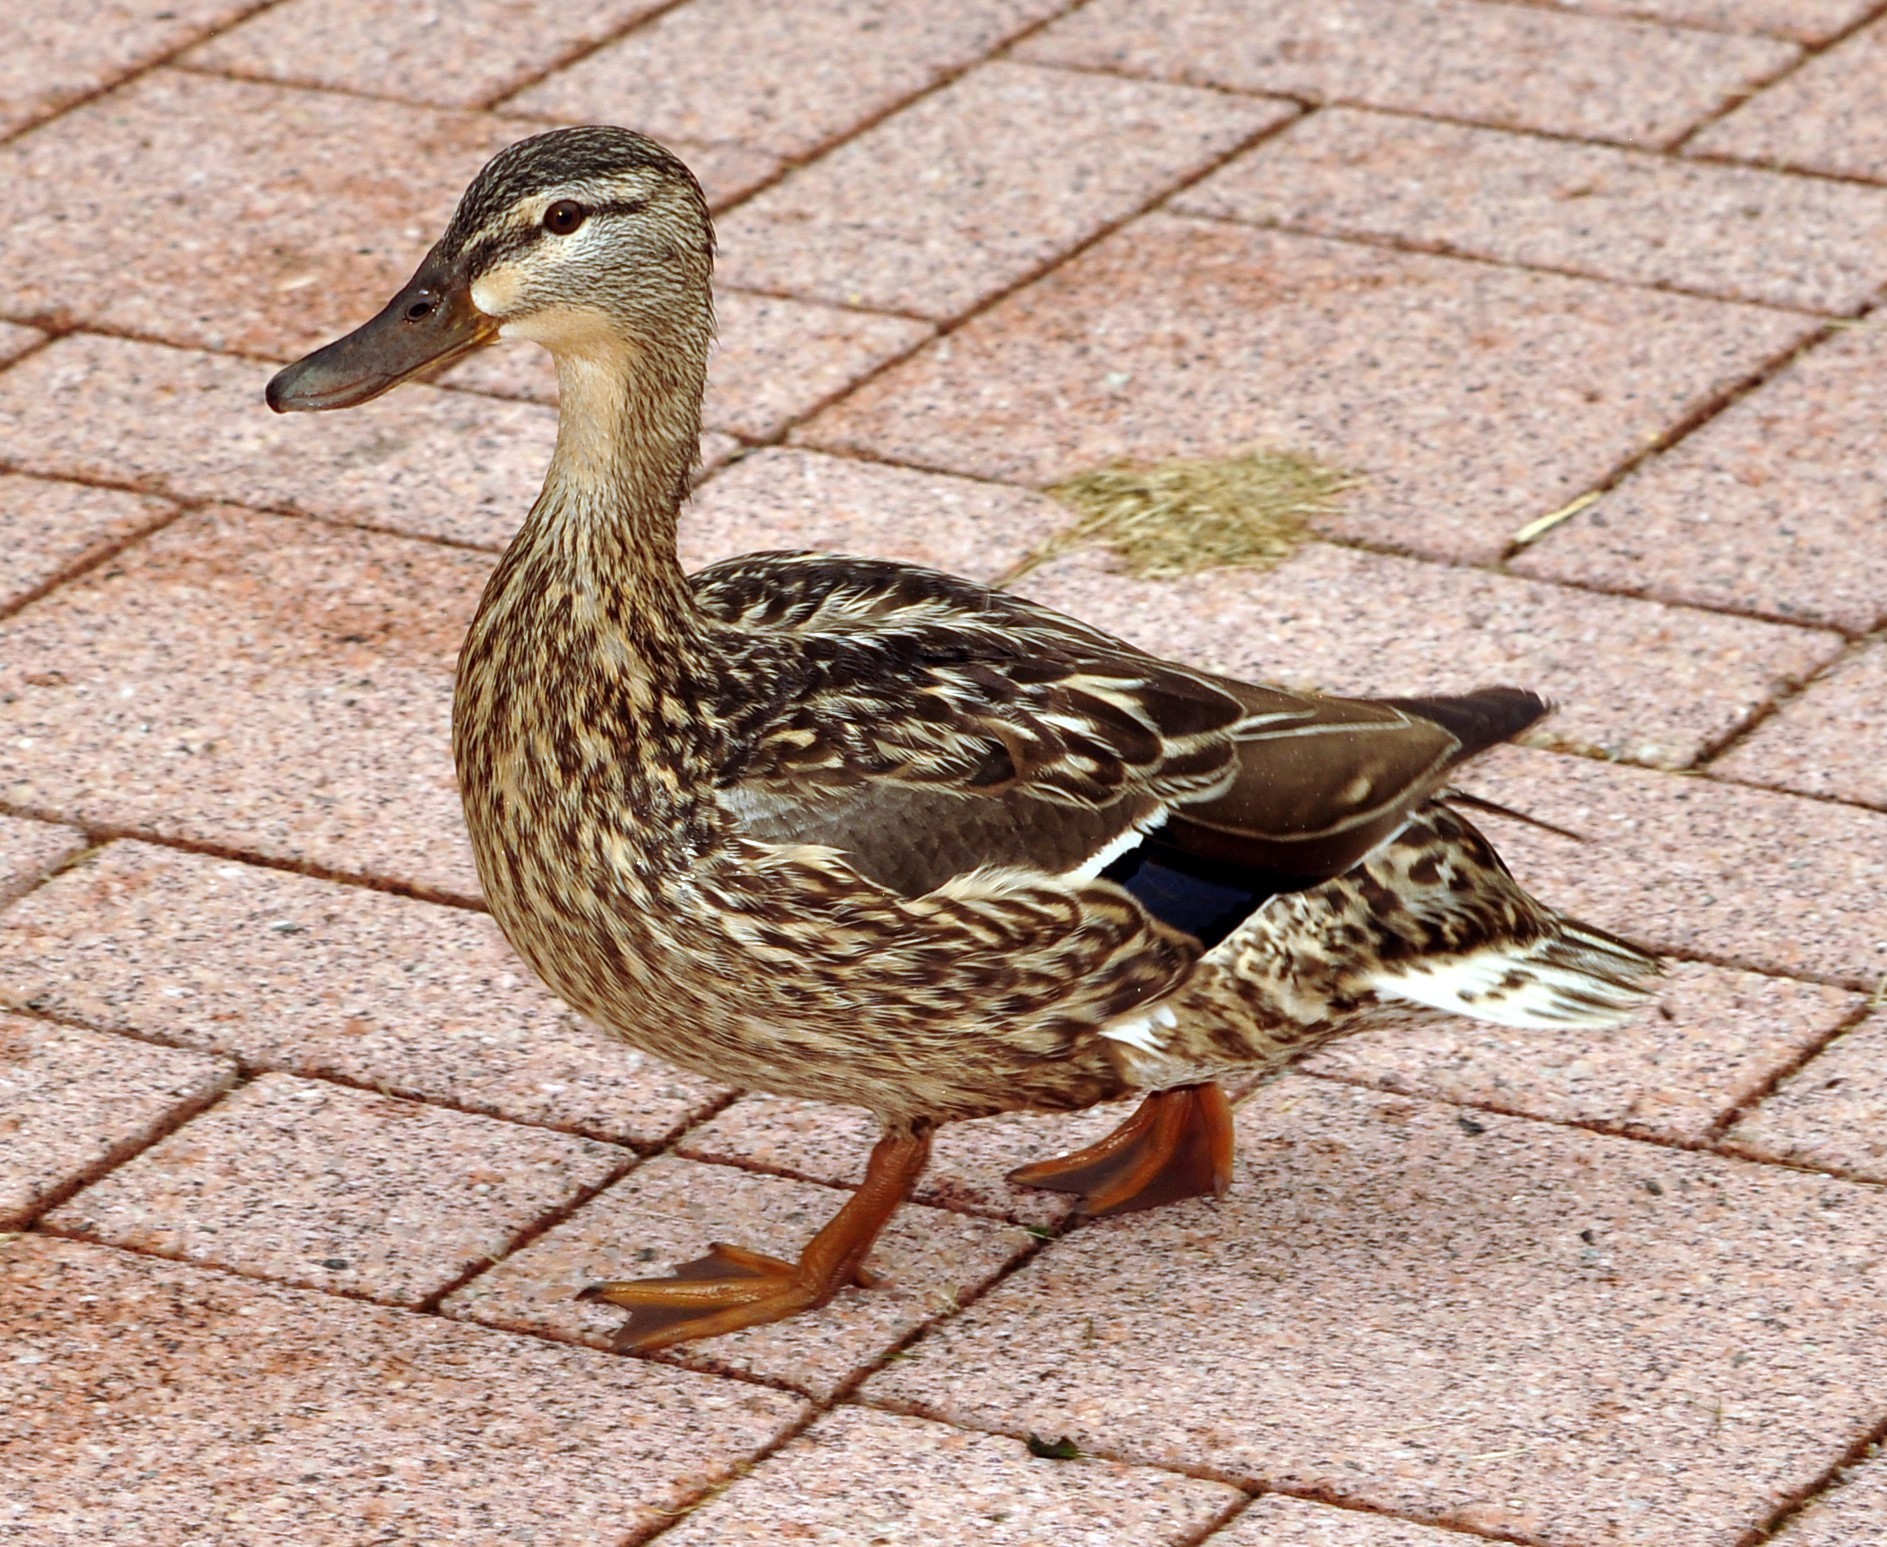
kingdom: Animalia
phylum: Chordata
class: Aves
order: Anseriformes
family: Anatidae
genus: Anas
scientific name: Anas platyrhynchos
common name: Mallard
